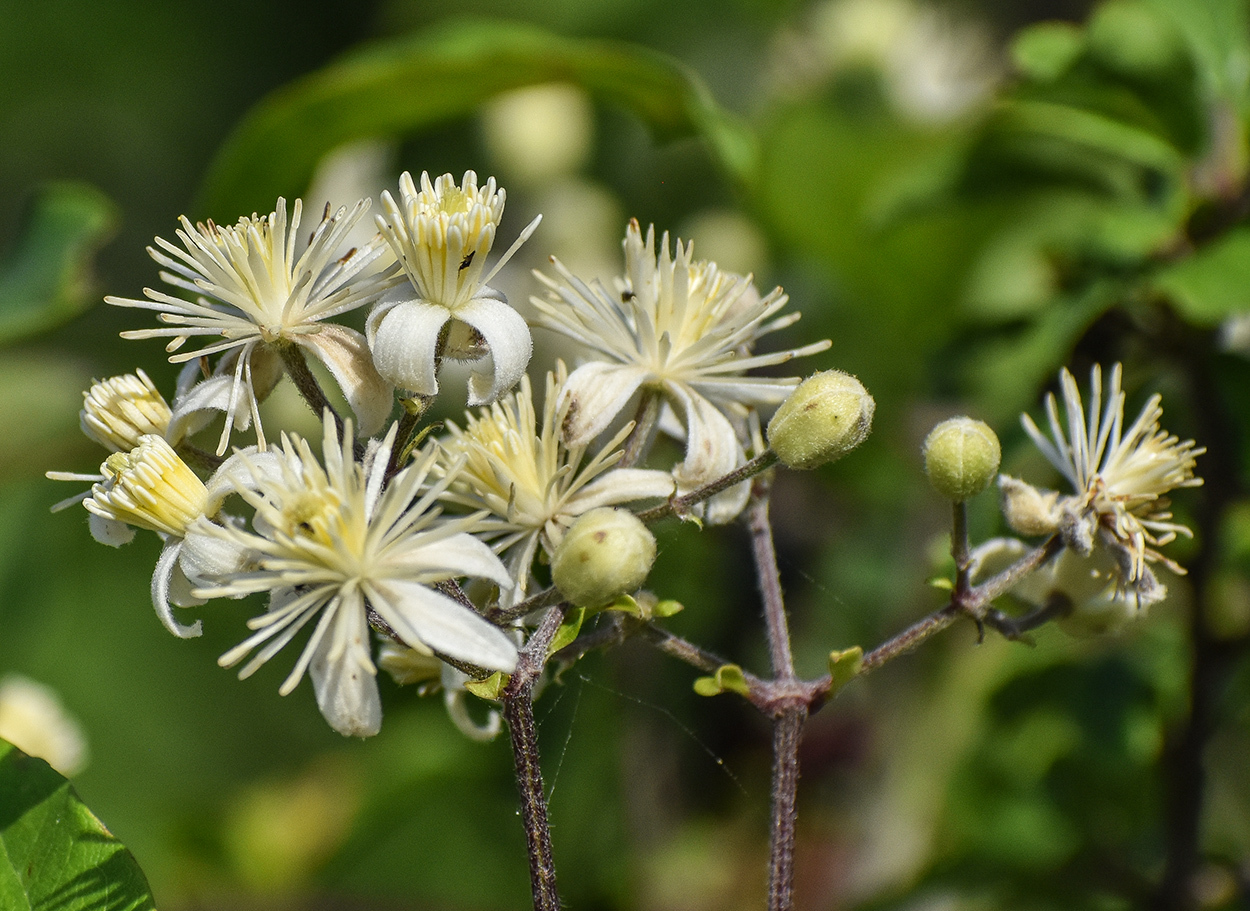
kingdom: Plantae
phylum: Tracheophyta
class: Magnoliopsida
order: Ranunculales
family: Ranunculaceae
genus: Clematis
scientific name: Clematis vitalba
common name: Evergreen clematis
